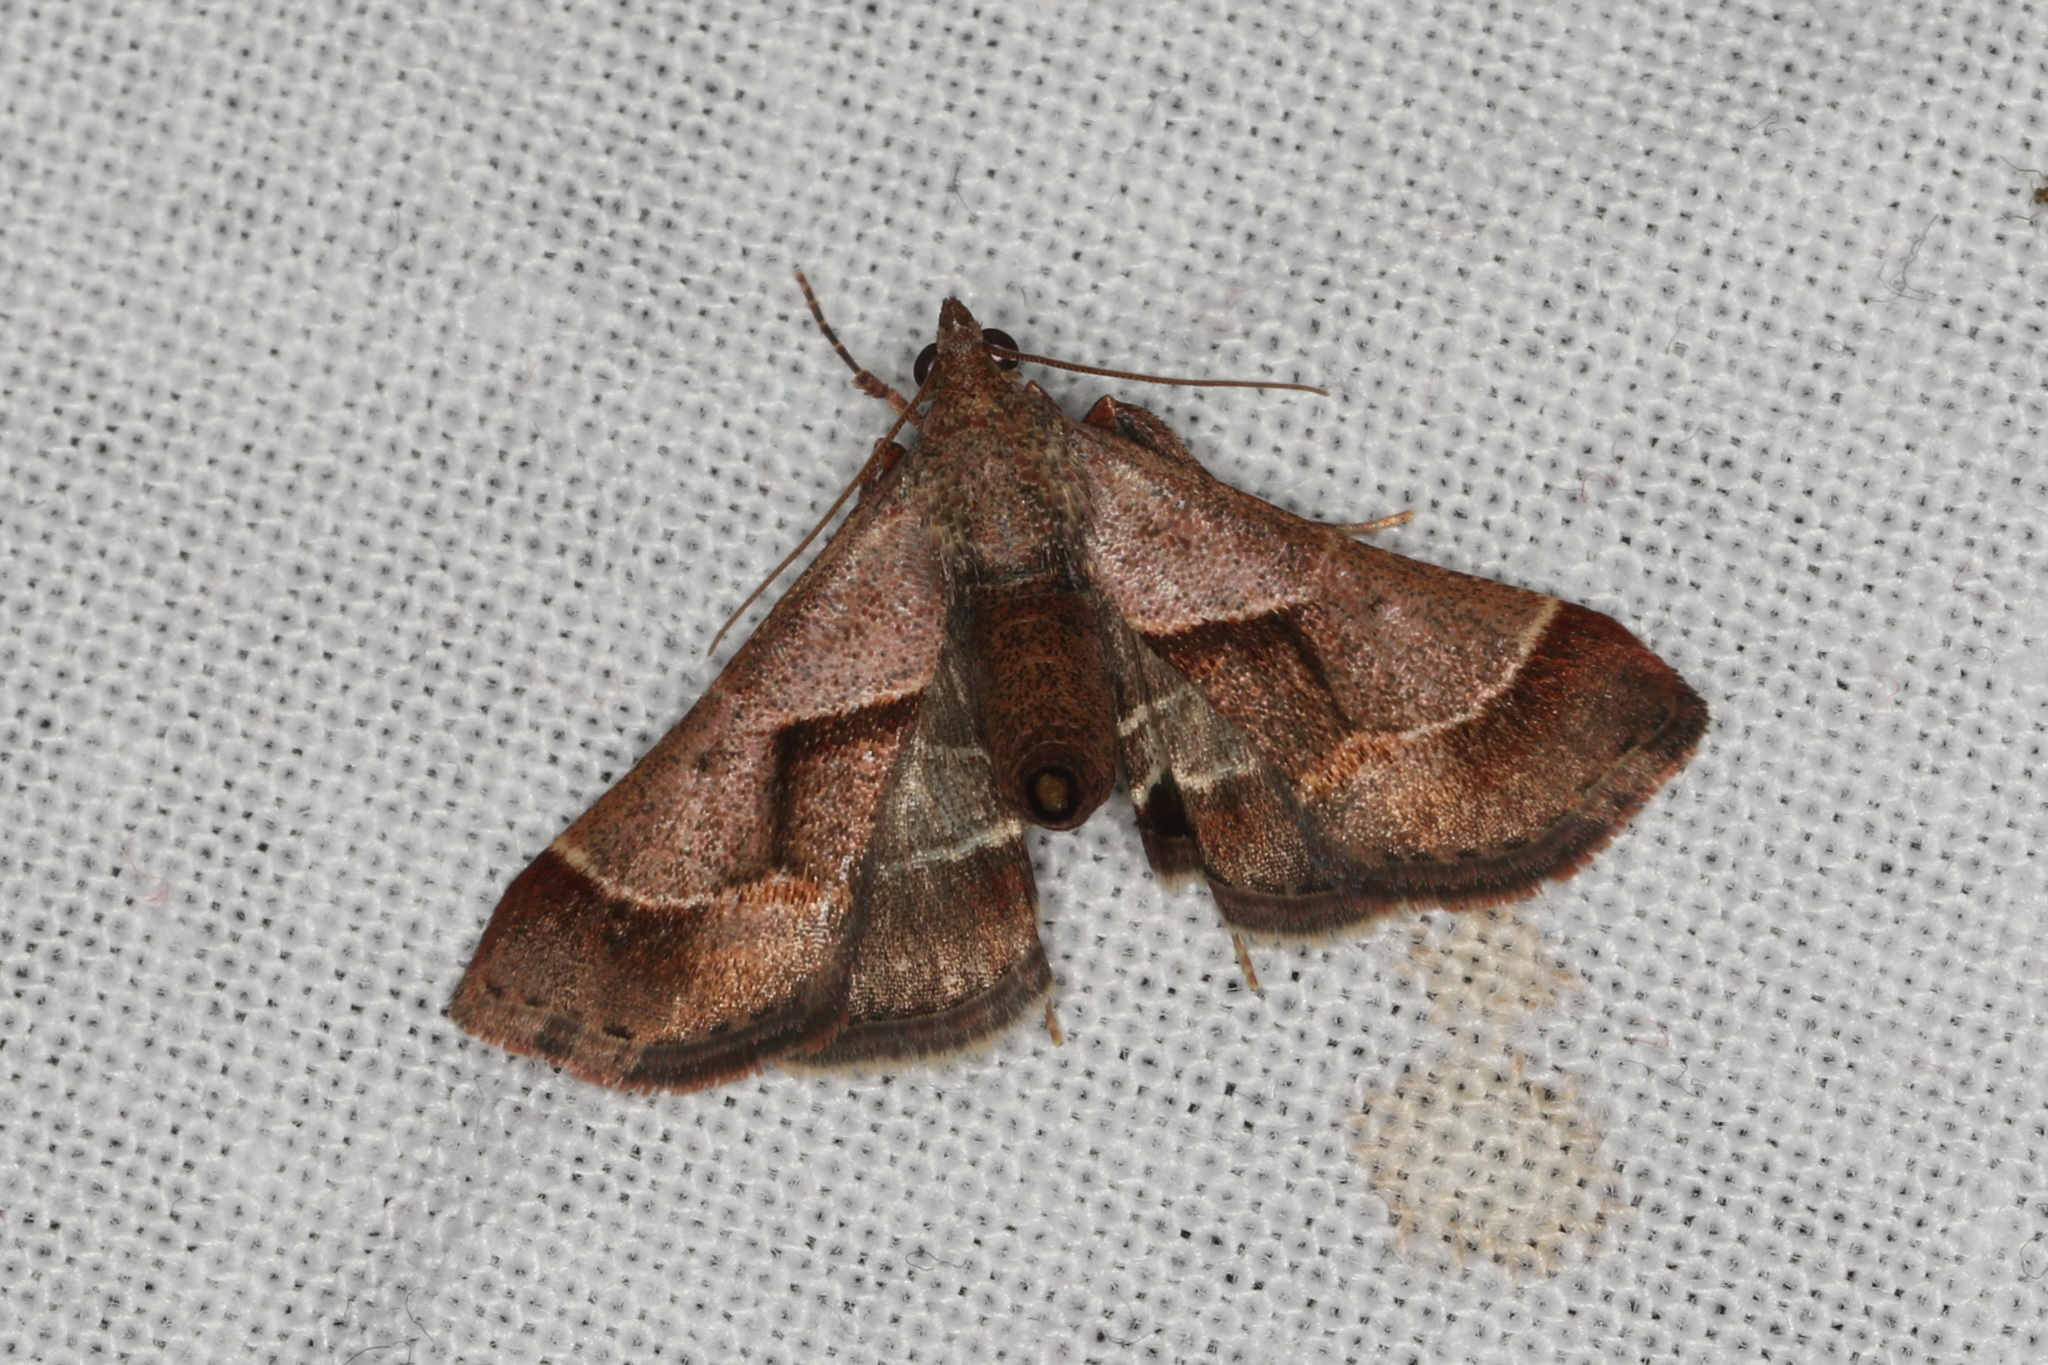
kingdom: Animalia
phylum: Arthropoda
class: Insecta
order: Lepidoptera
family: Pyralidae
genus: Gauna
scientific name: Gauna aegusalis
